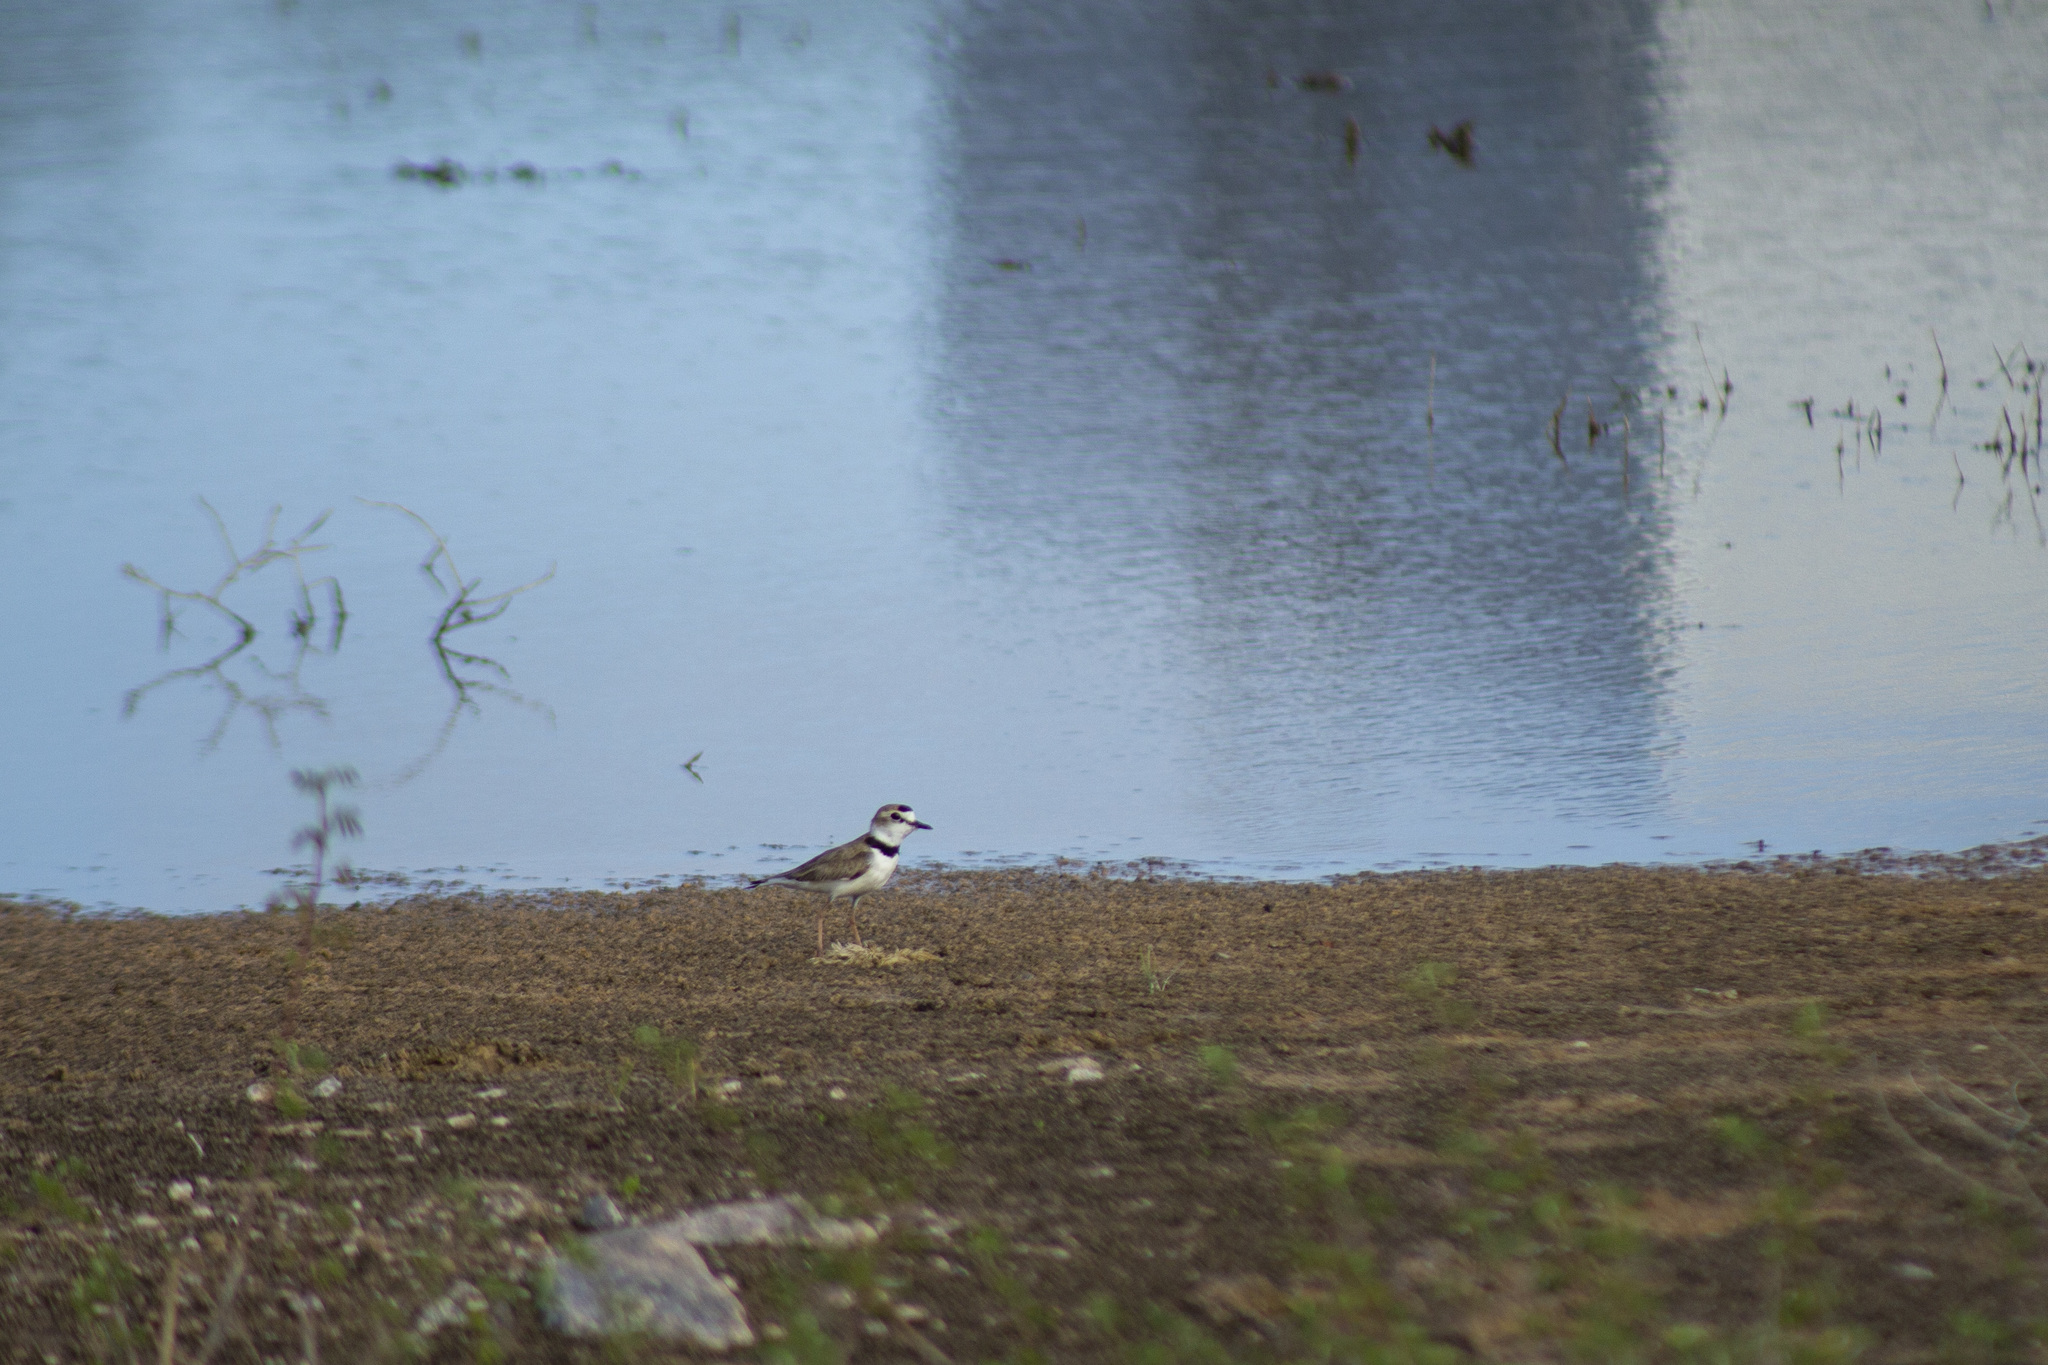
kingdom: Animalia
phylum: Chordata
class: Aves
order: Charadriiformes
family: Charadriidae
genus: Anarhynchus
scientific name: Anarhynchus
